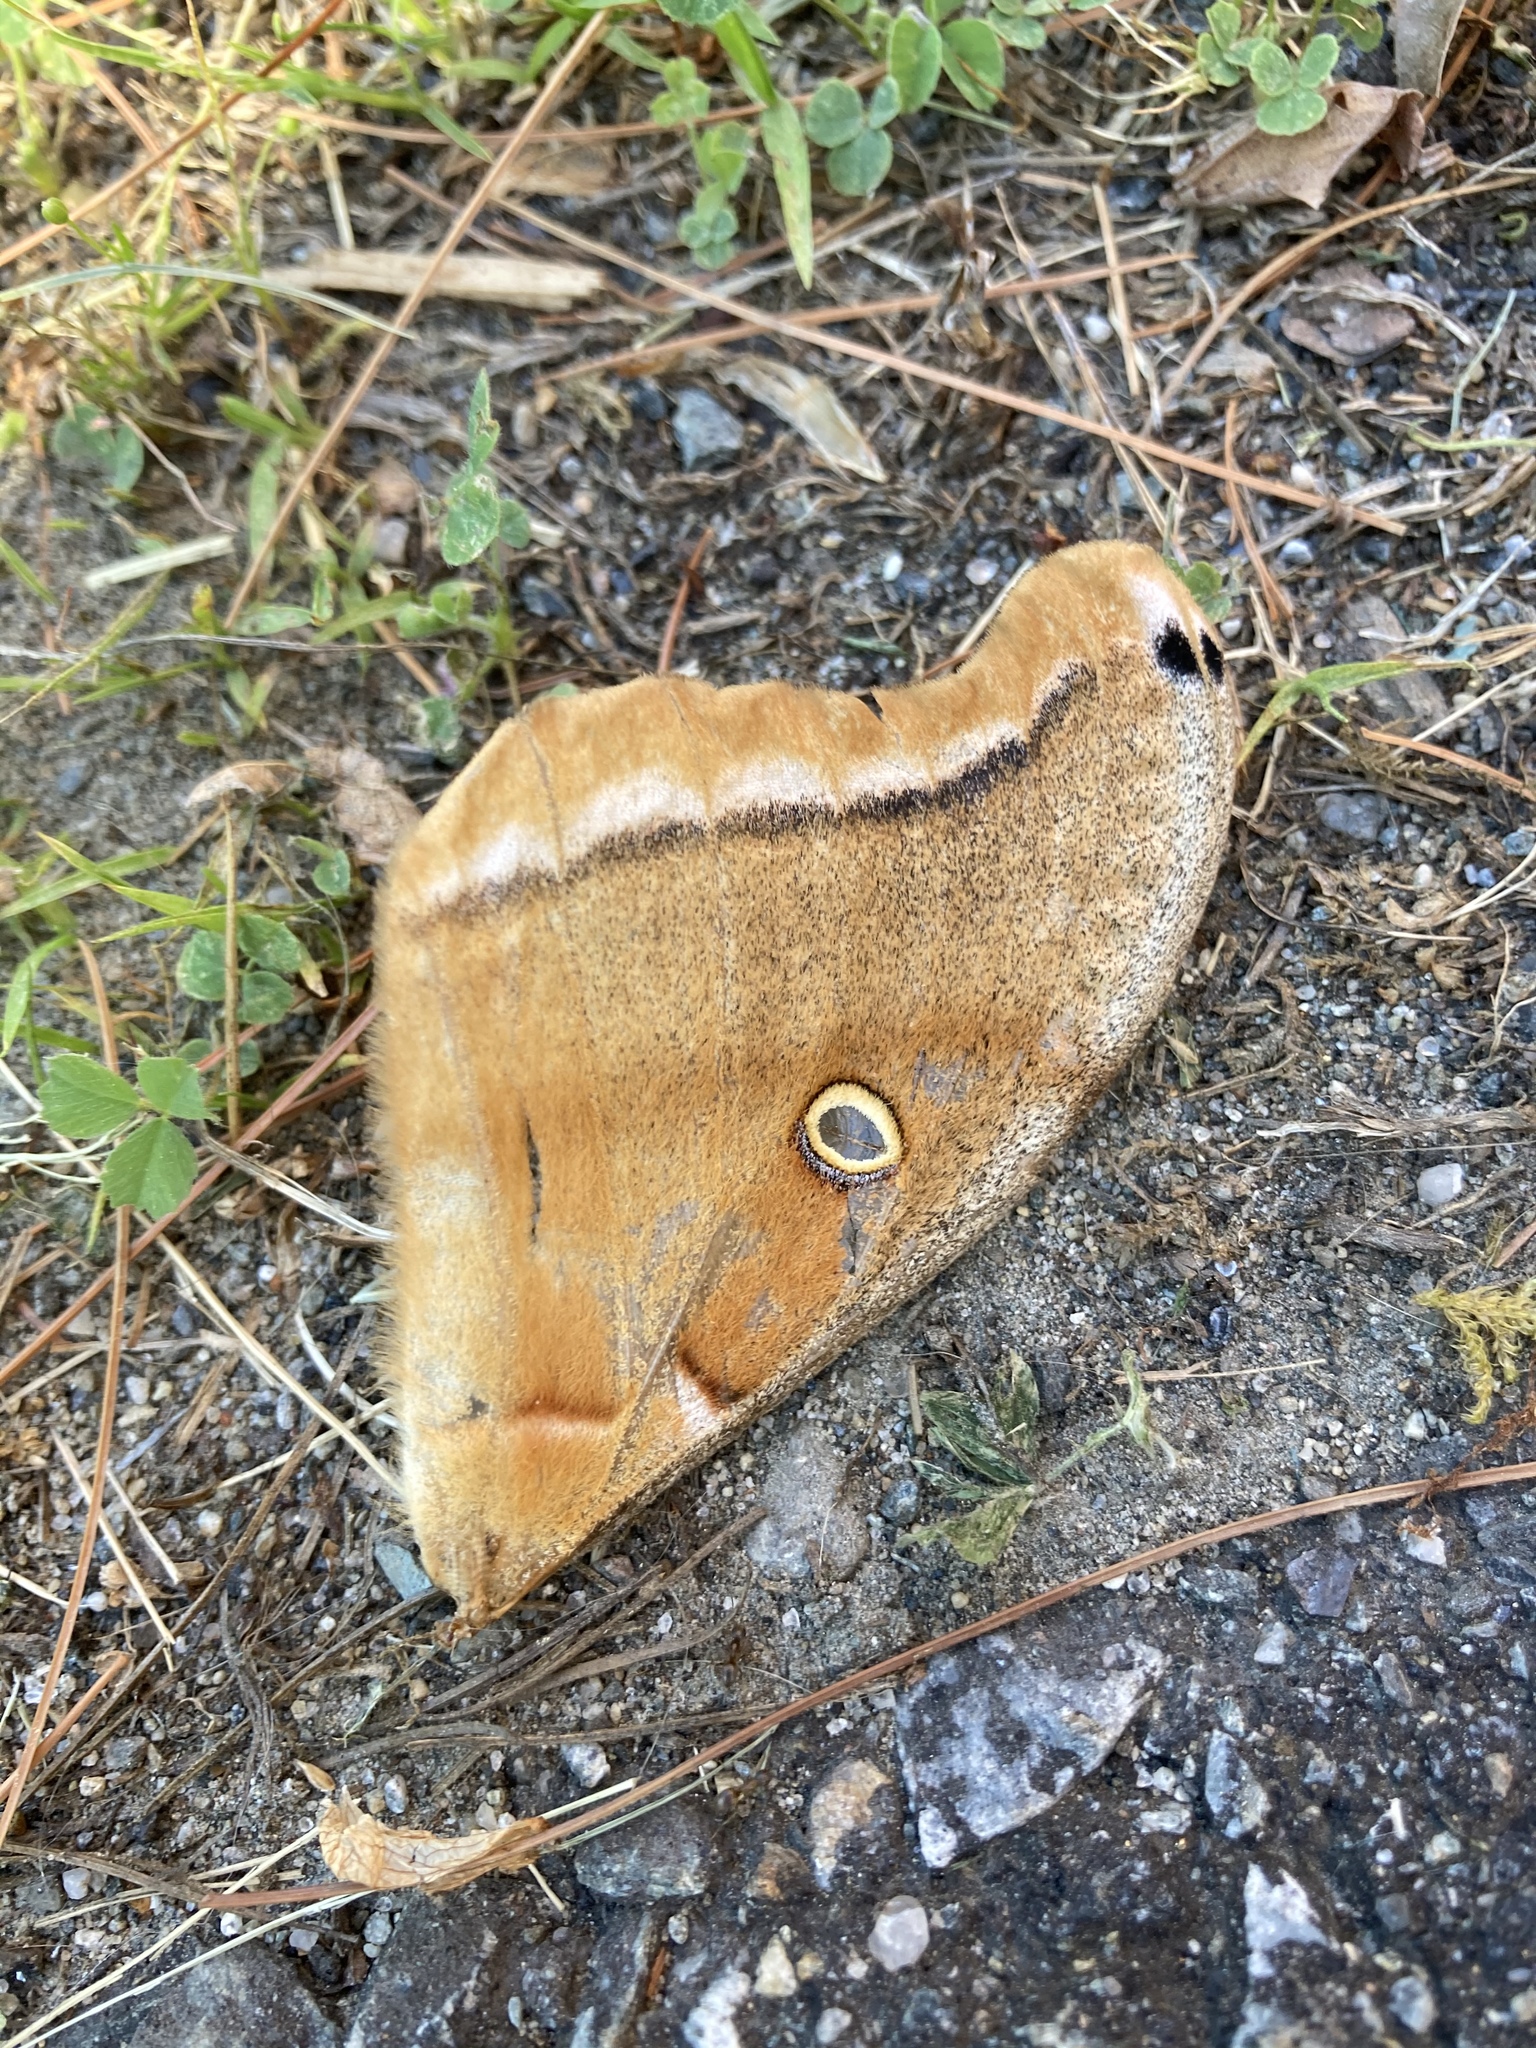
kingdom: Animalia
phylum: Arthropoda
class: Insecta
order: Lepidoptera
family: Saturniidae
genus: Antheraea
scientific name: Antheraea polyphemus
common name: Polyphemus moth
